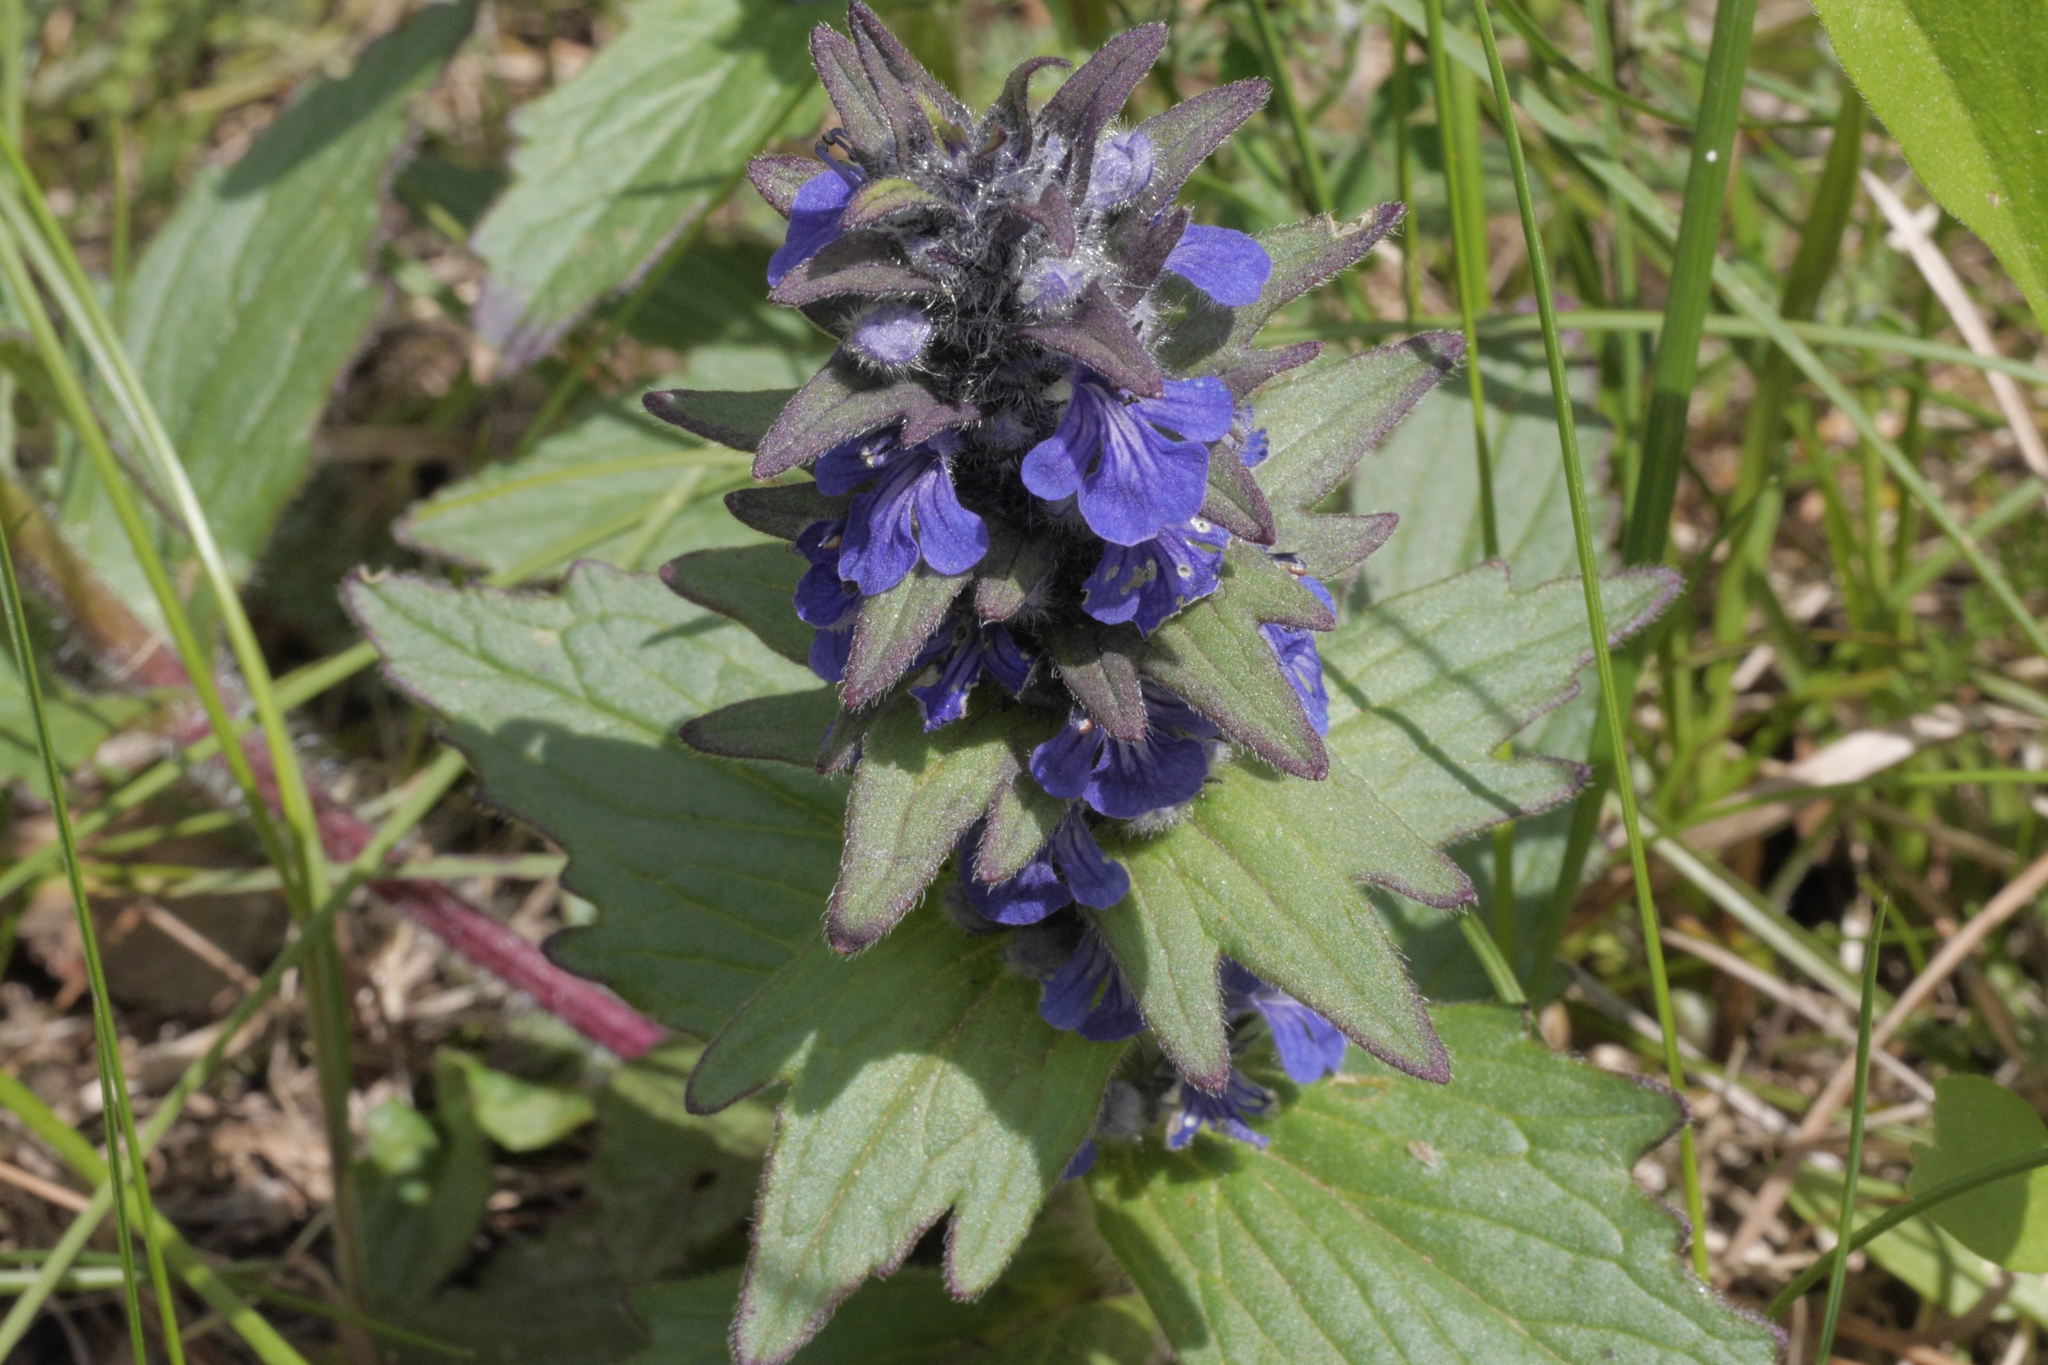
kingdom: Plantae
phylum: Tracheophyta
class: Magnoliopsida
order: Lamiales
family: Lamiaceae
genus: Ajuga
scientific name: Ajuga genevensis
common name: Blue bugle
